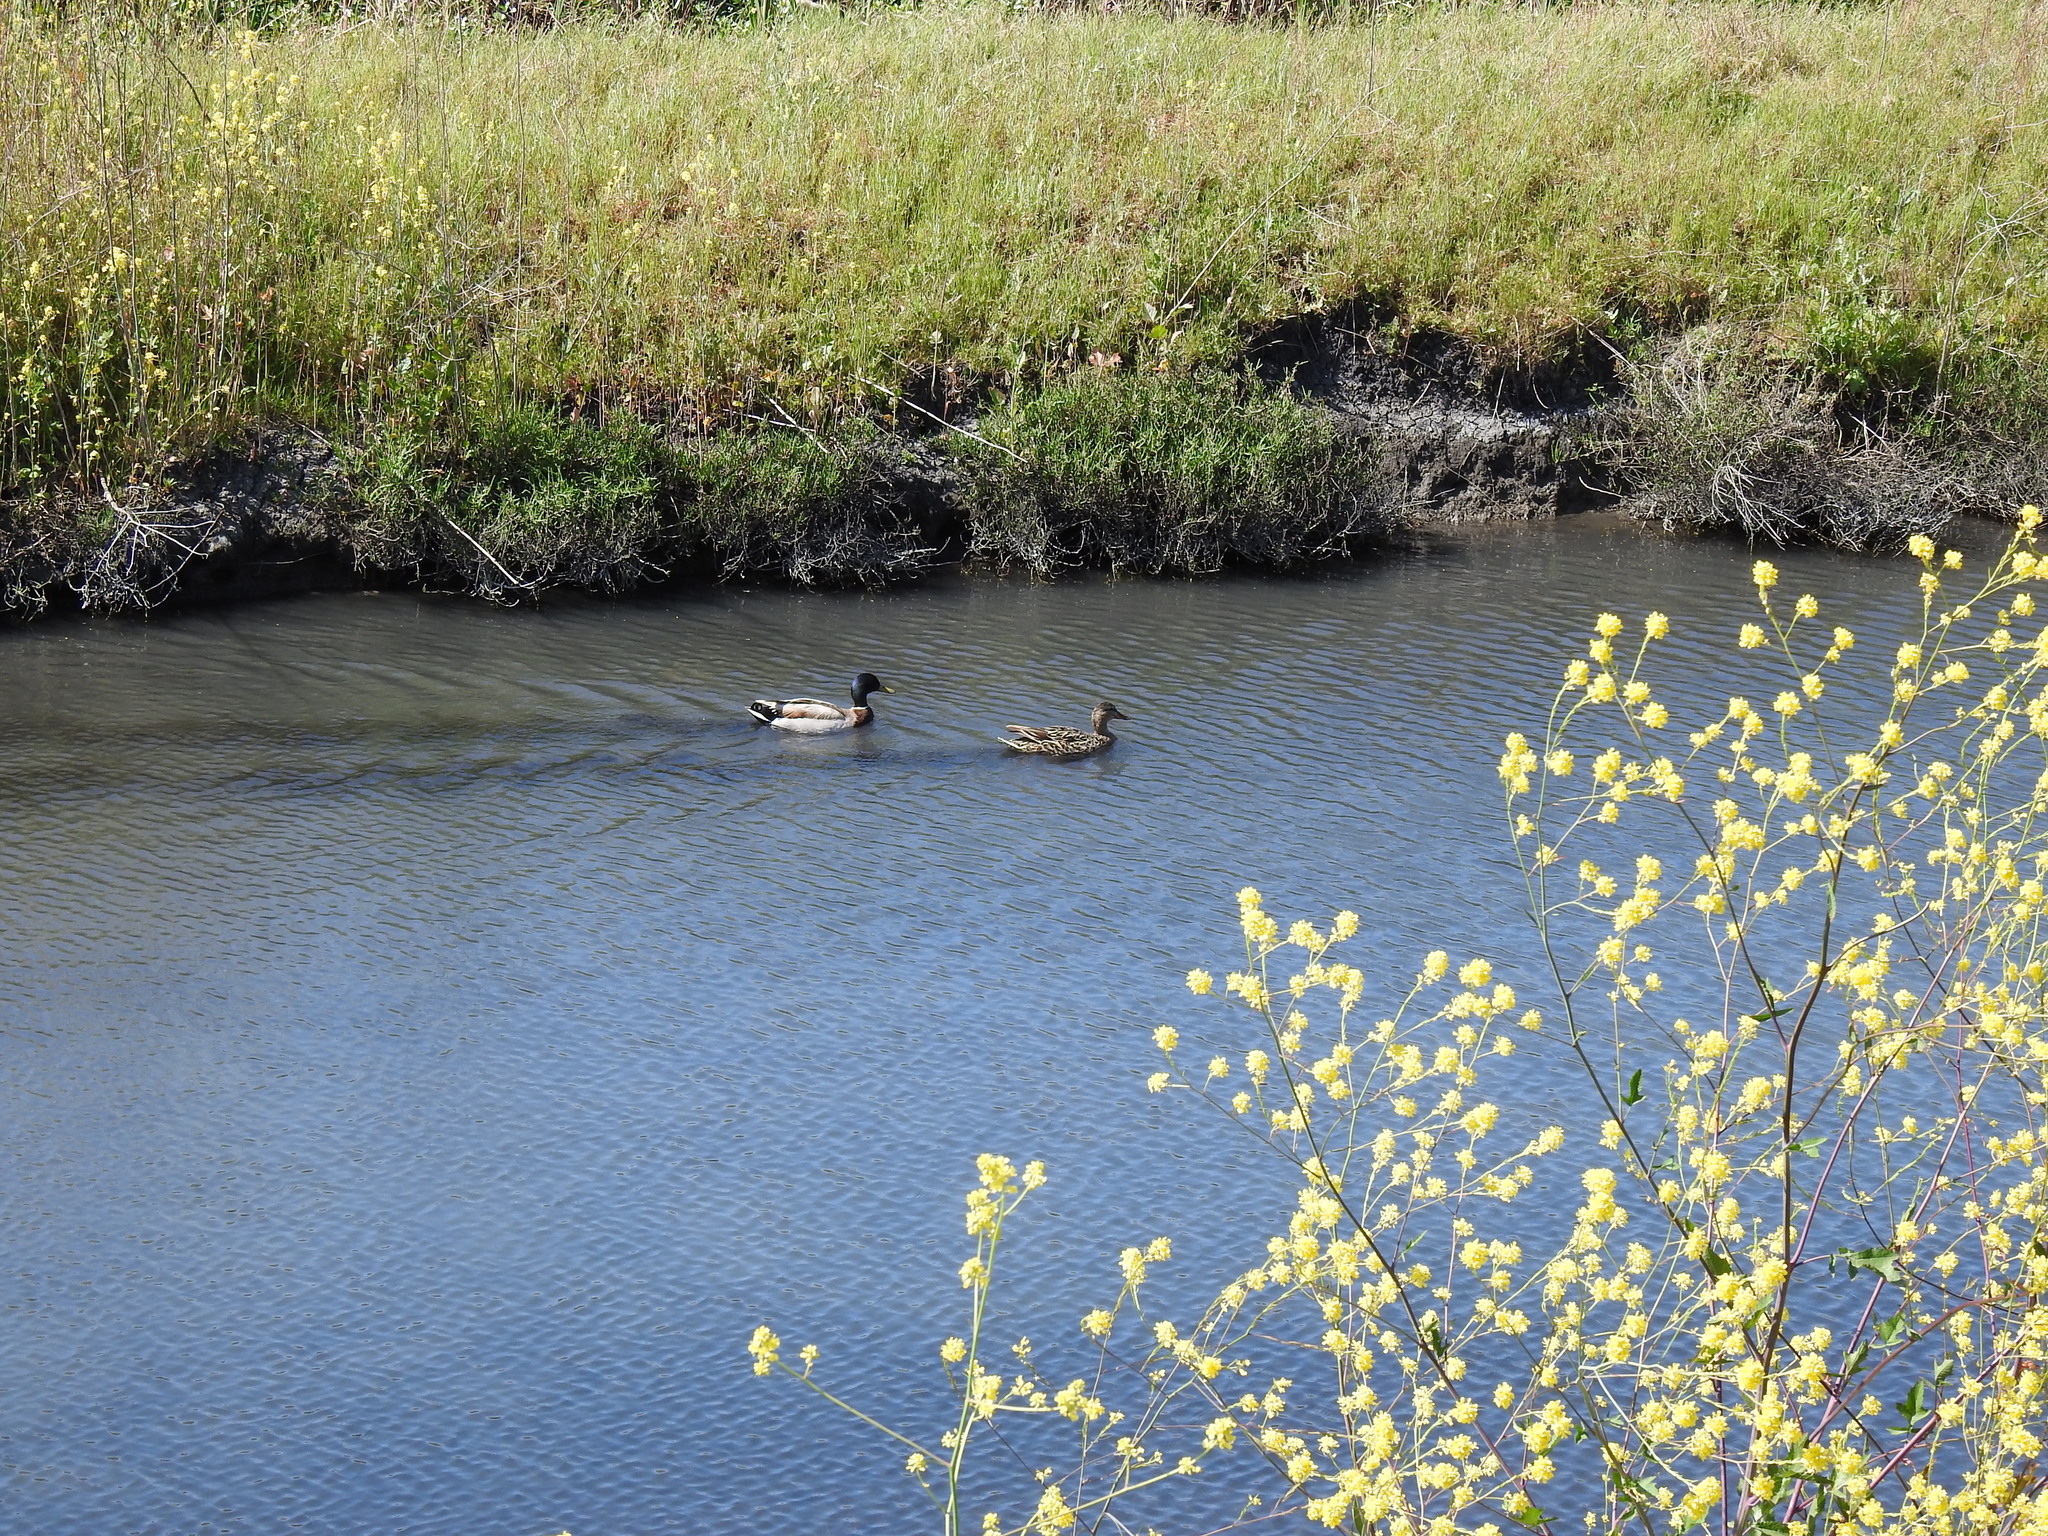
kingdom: Animalia
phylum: Chordata
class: Aves
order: Anseriformes
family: Anatidae
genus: Anas
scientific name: Anas platyrhynchos
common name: Mallard
